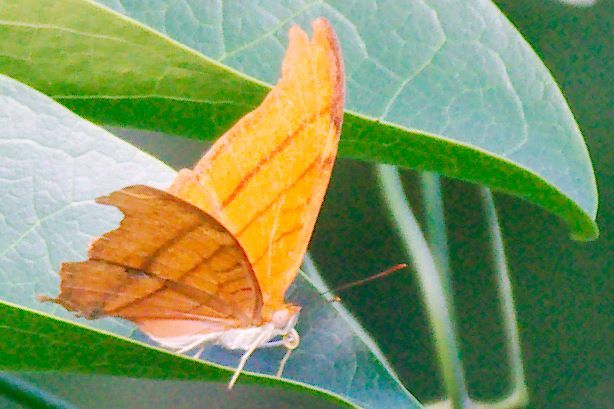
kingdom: Animalia
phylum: Arthropoda
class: Insecta
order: Lepidoptera
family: Nymphalidae
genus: Marpesia
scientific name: Marpesia petreus
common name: Red dagger wing
